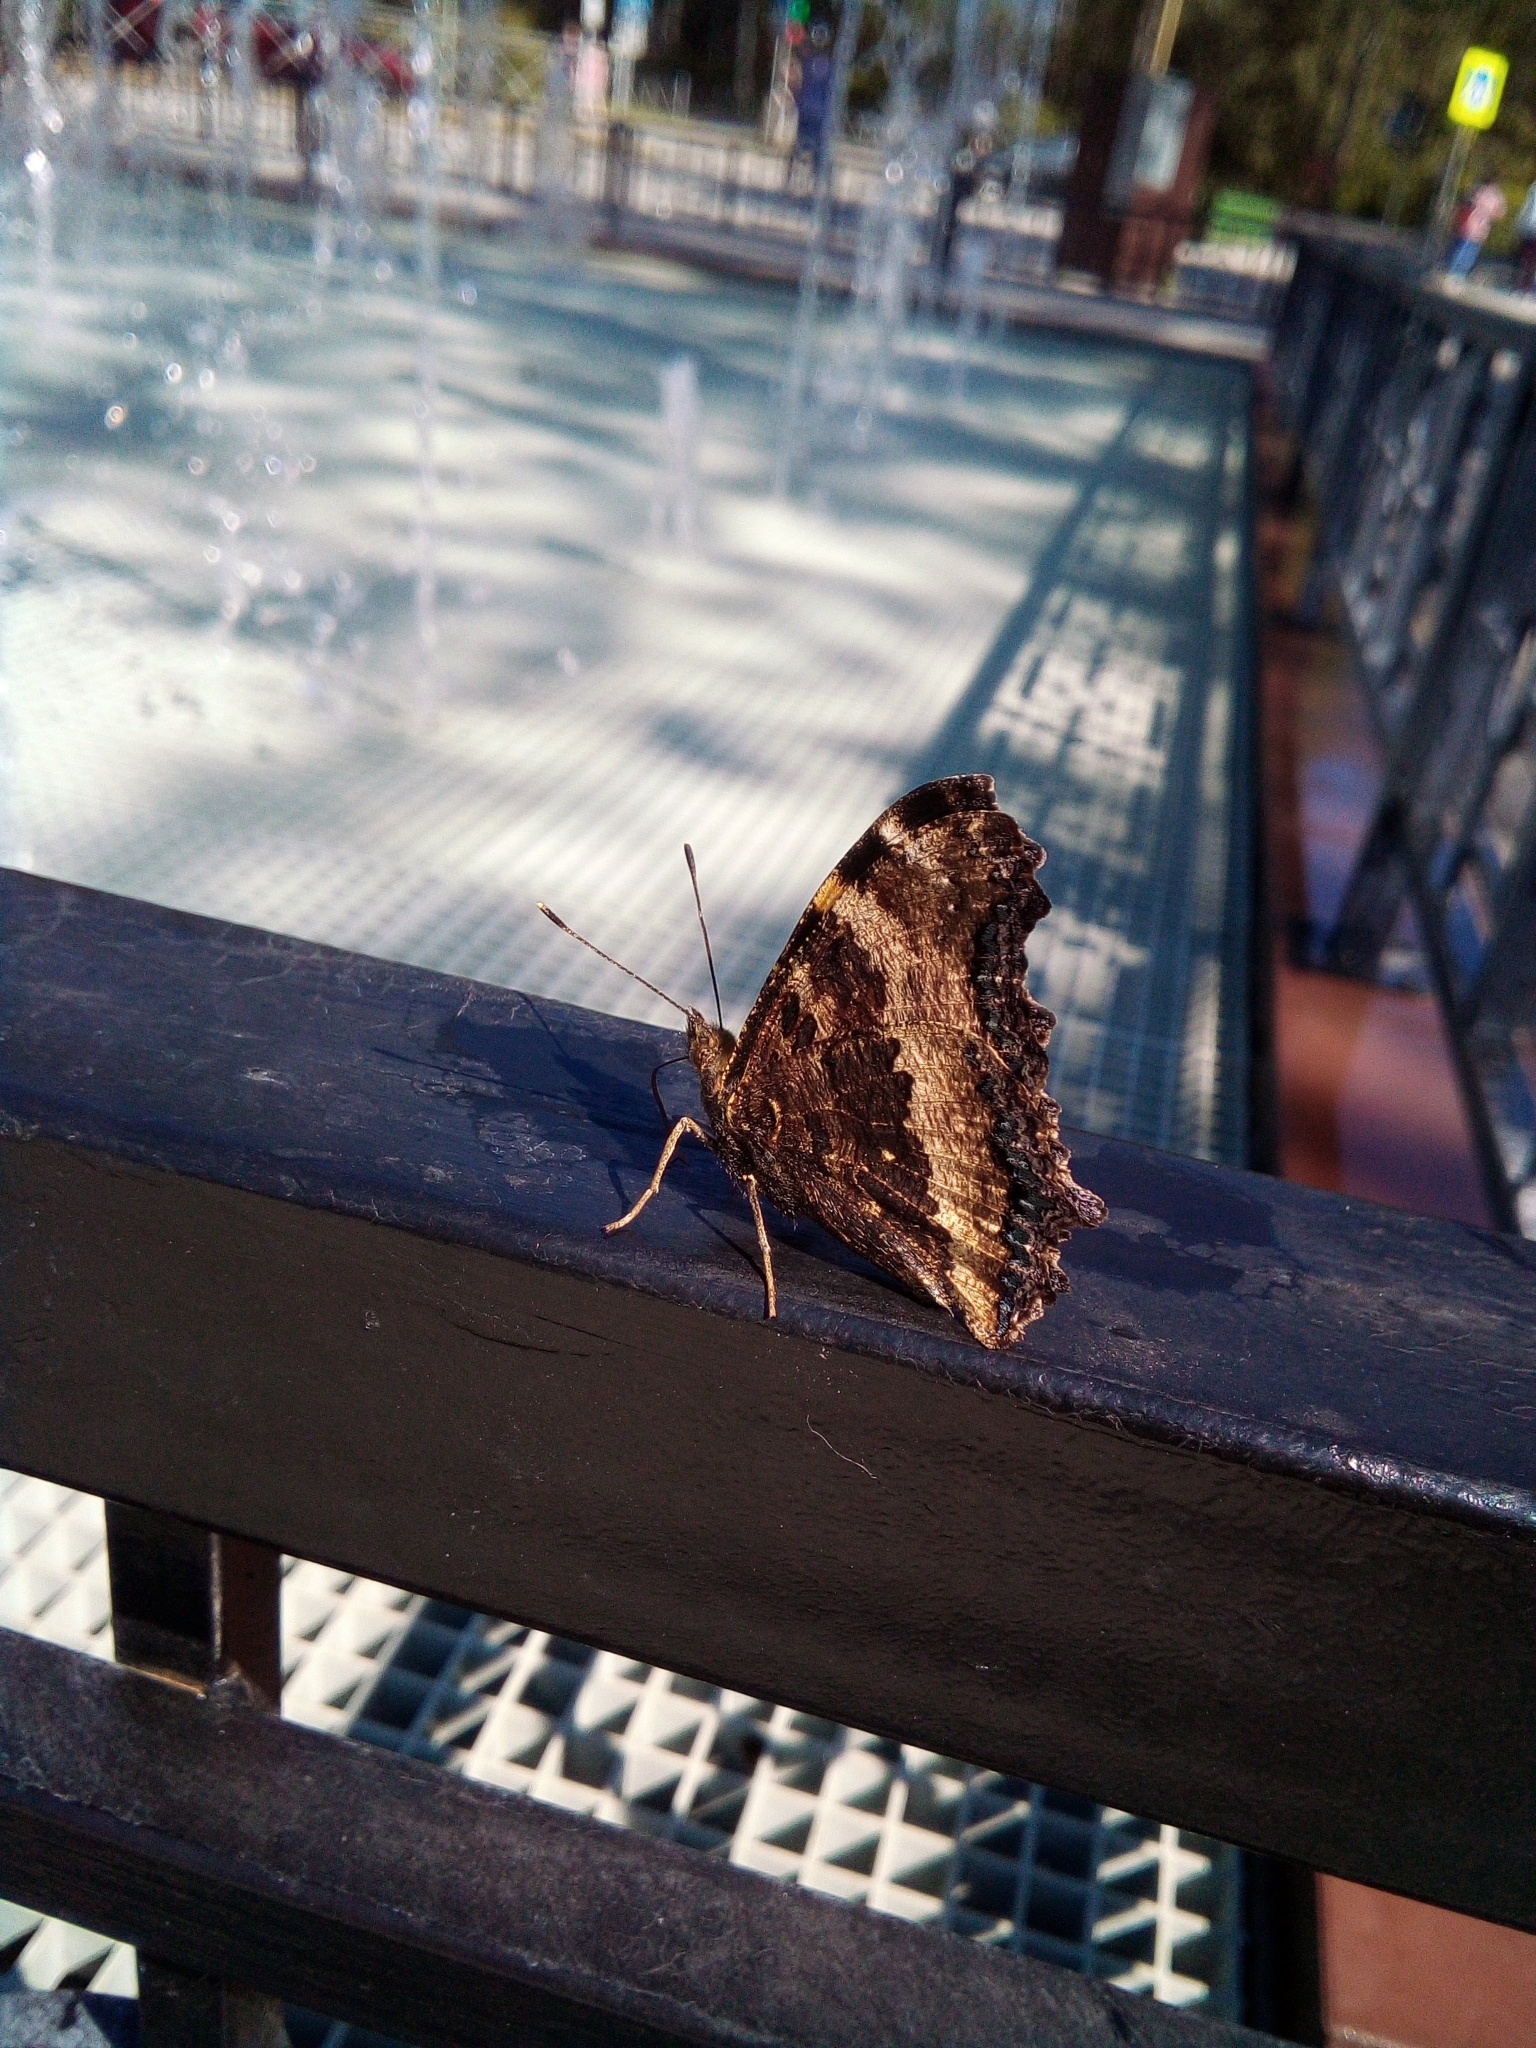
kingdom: Animalia
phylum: Arthropoda
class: Insecta
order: Lepidoptera
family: Nymphalidae
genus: Nymphalis
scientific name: Nymphalis xanthomelas
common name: Scarce tortoiseshell
